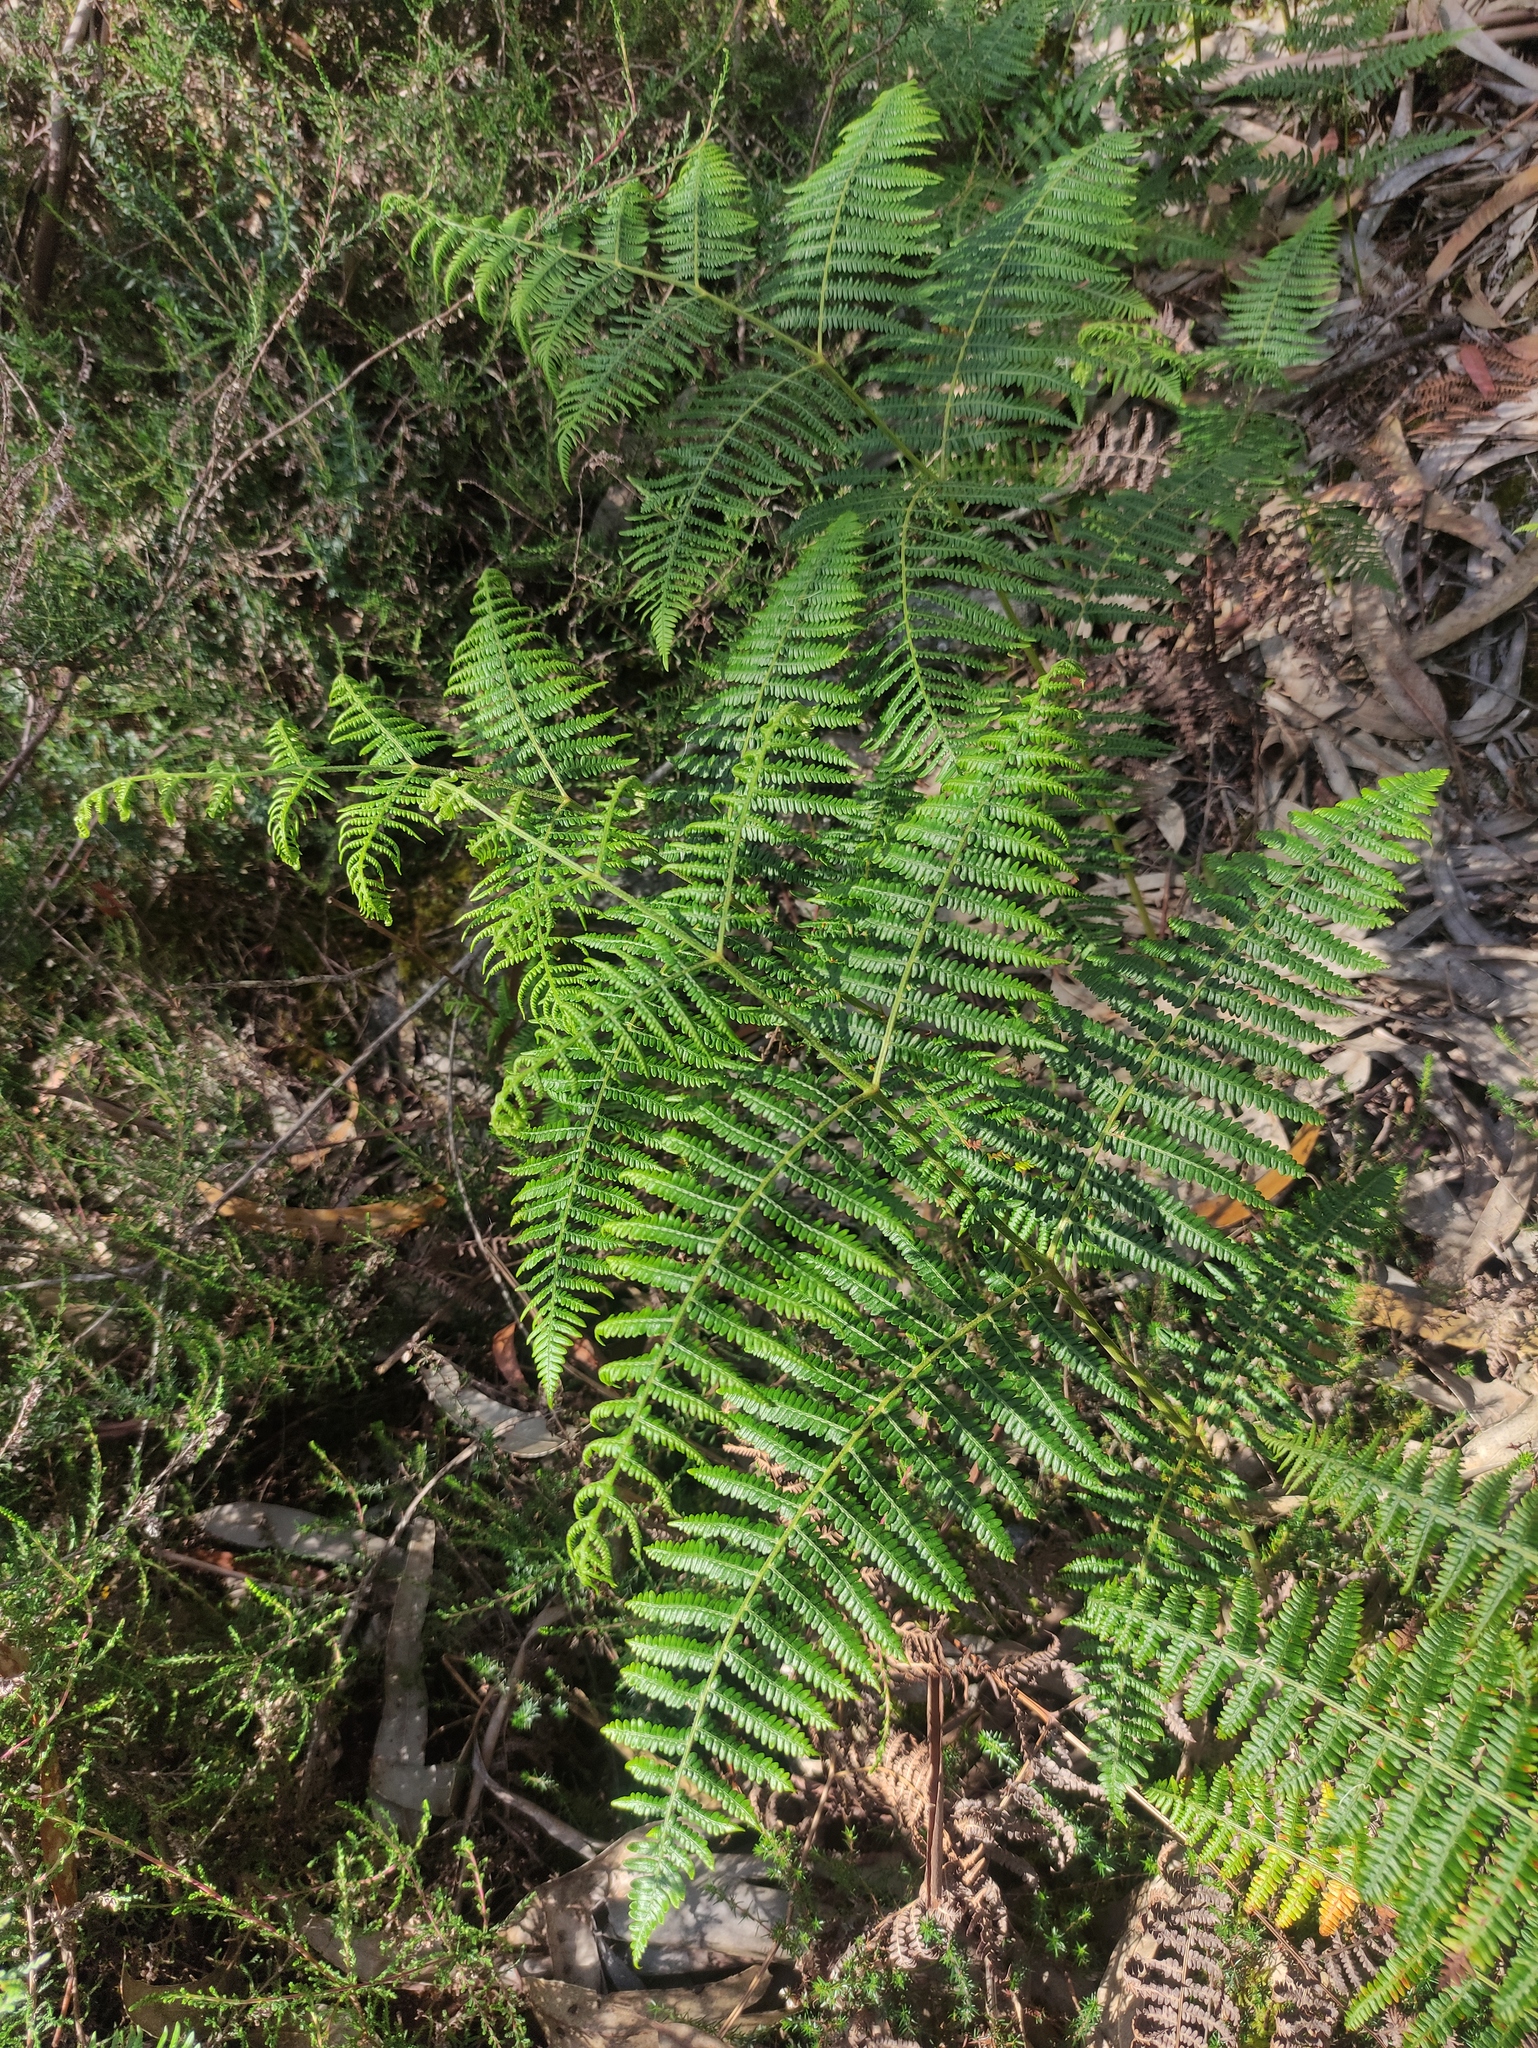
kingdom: Plantae
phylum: Tracheophyta
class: Polypodiopsida
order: Polypodiales
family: Dennstaedtiaceae
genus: Pteridium
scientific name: Pteridium aquilinum
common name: Bracken
